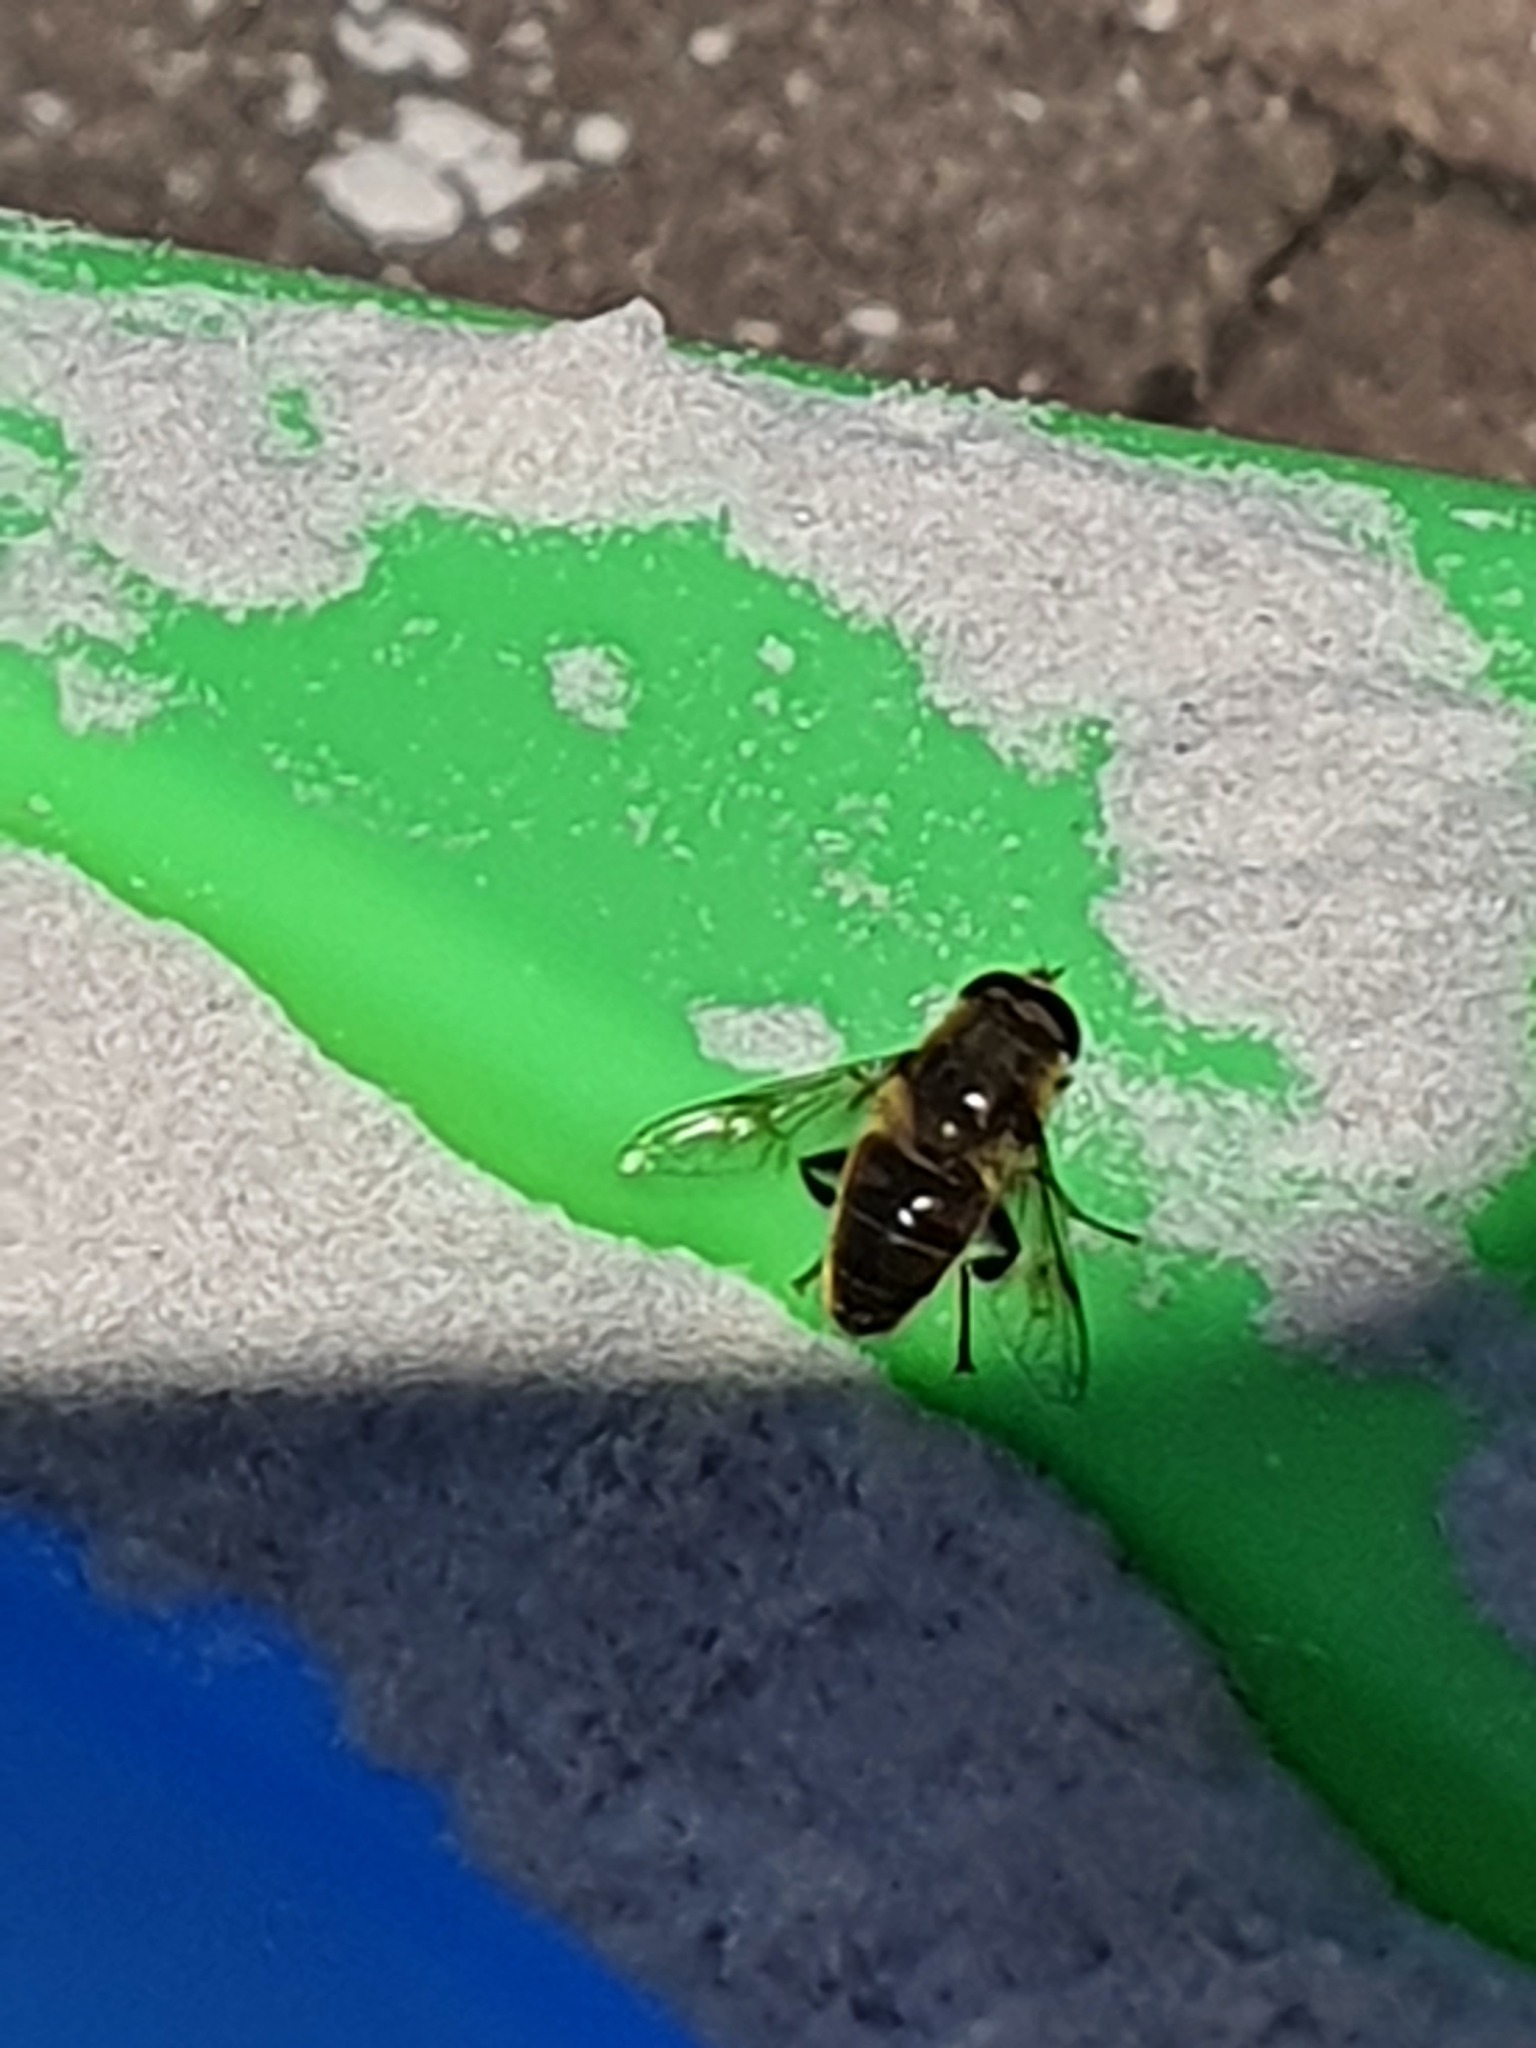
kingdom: Animalia
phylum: Arthropoda
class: Insecta
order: Diptera
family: Syrphidae
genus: Eristalis
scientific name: Eristalis tenax
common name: Drone fly
